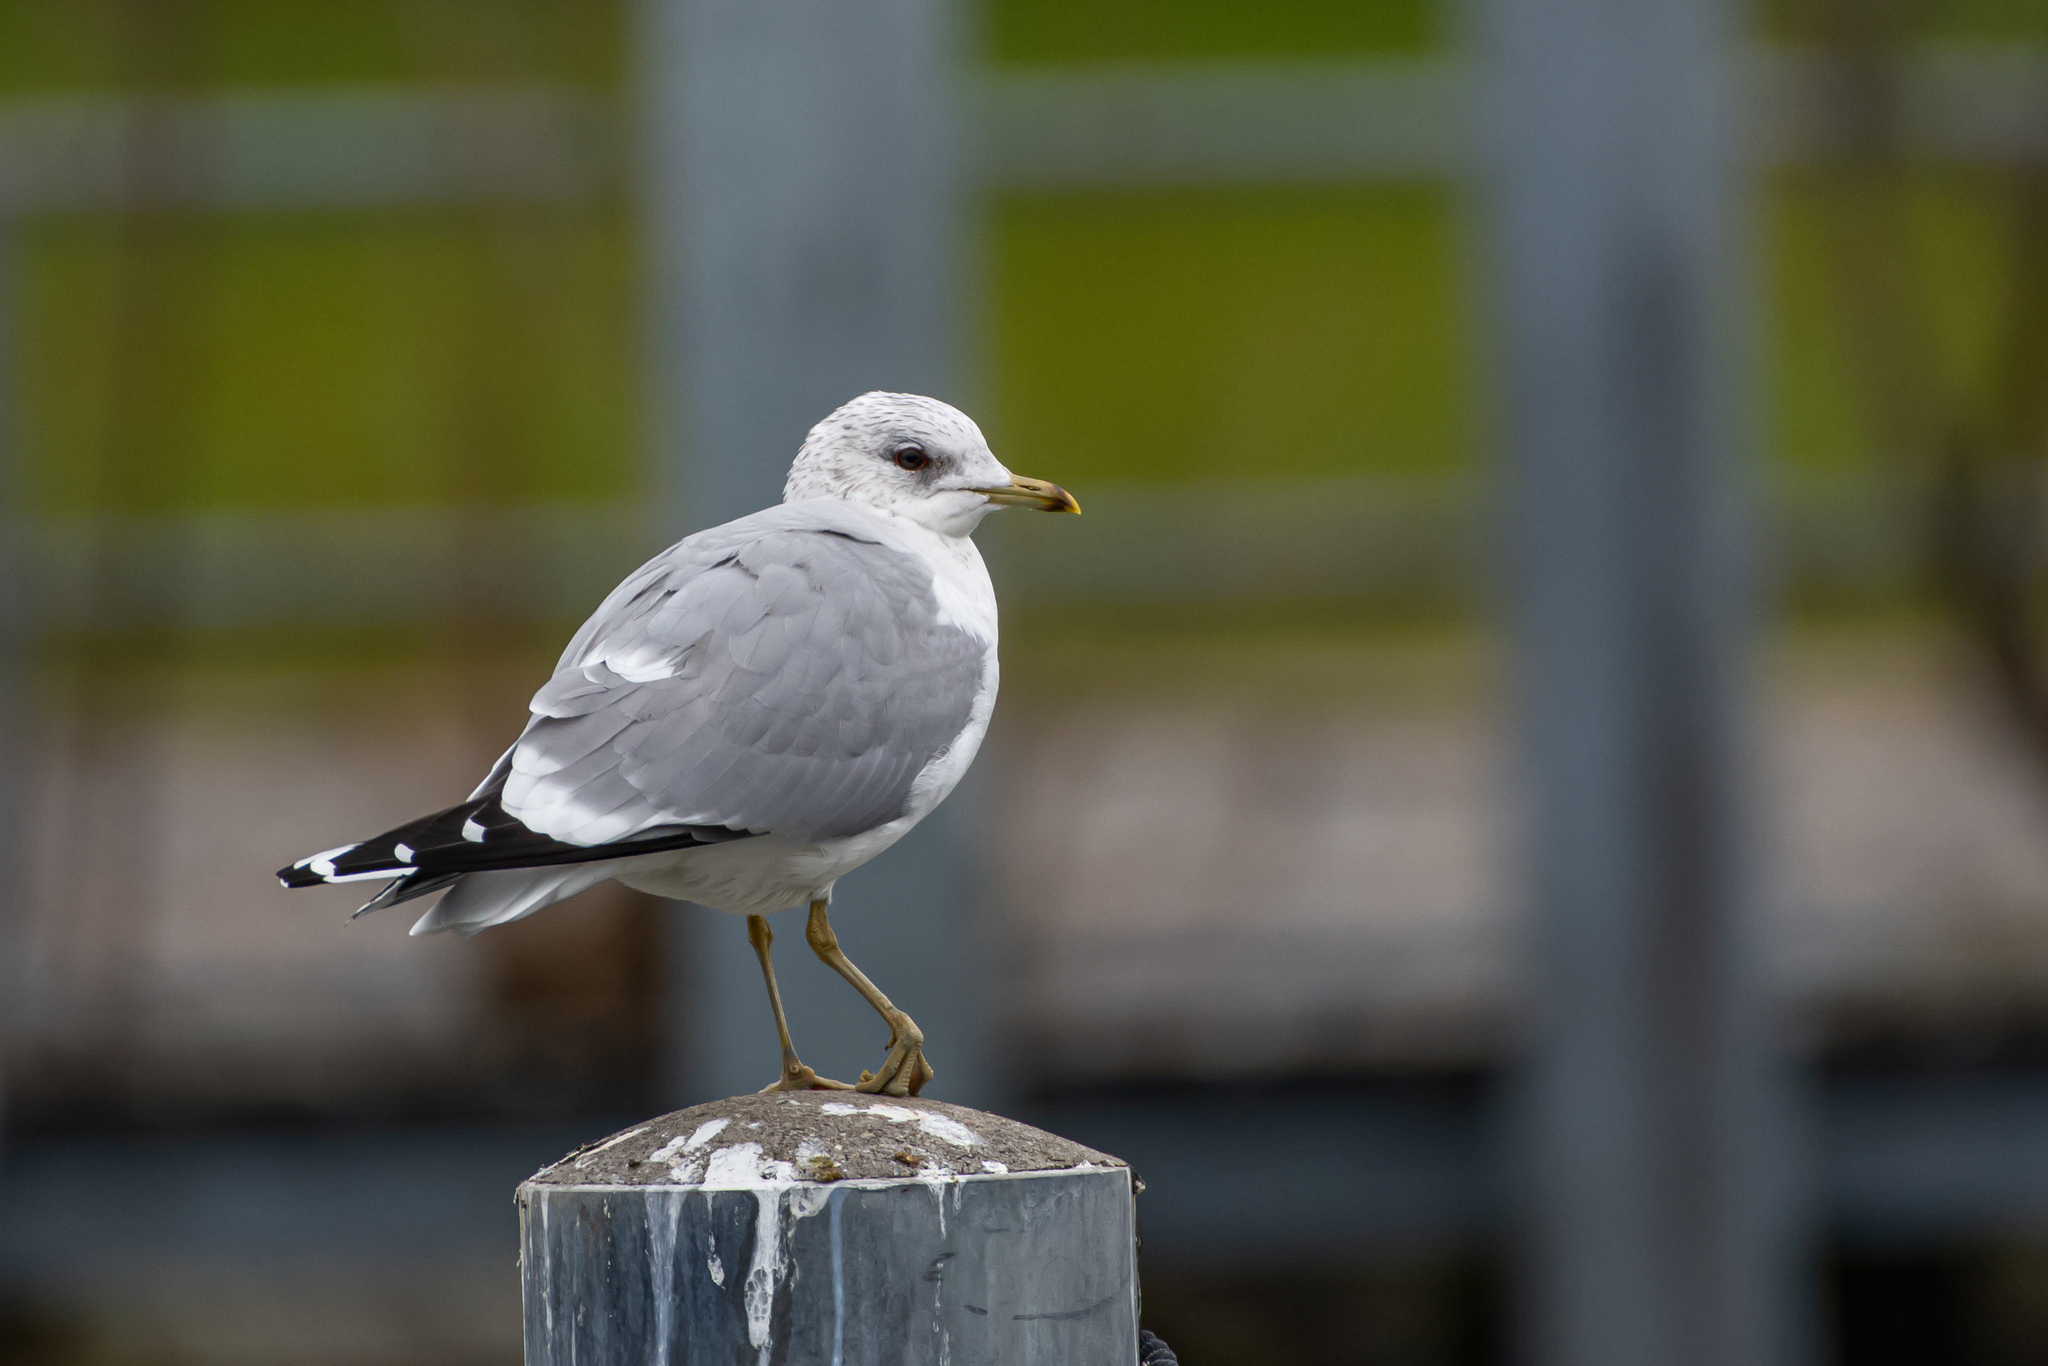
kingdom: Animalia
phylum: Chordata
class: Aves
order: Charadriiformes
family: Laridae
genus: Larus
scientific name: Larus canus
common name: Mew gull
